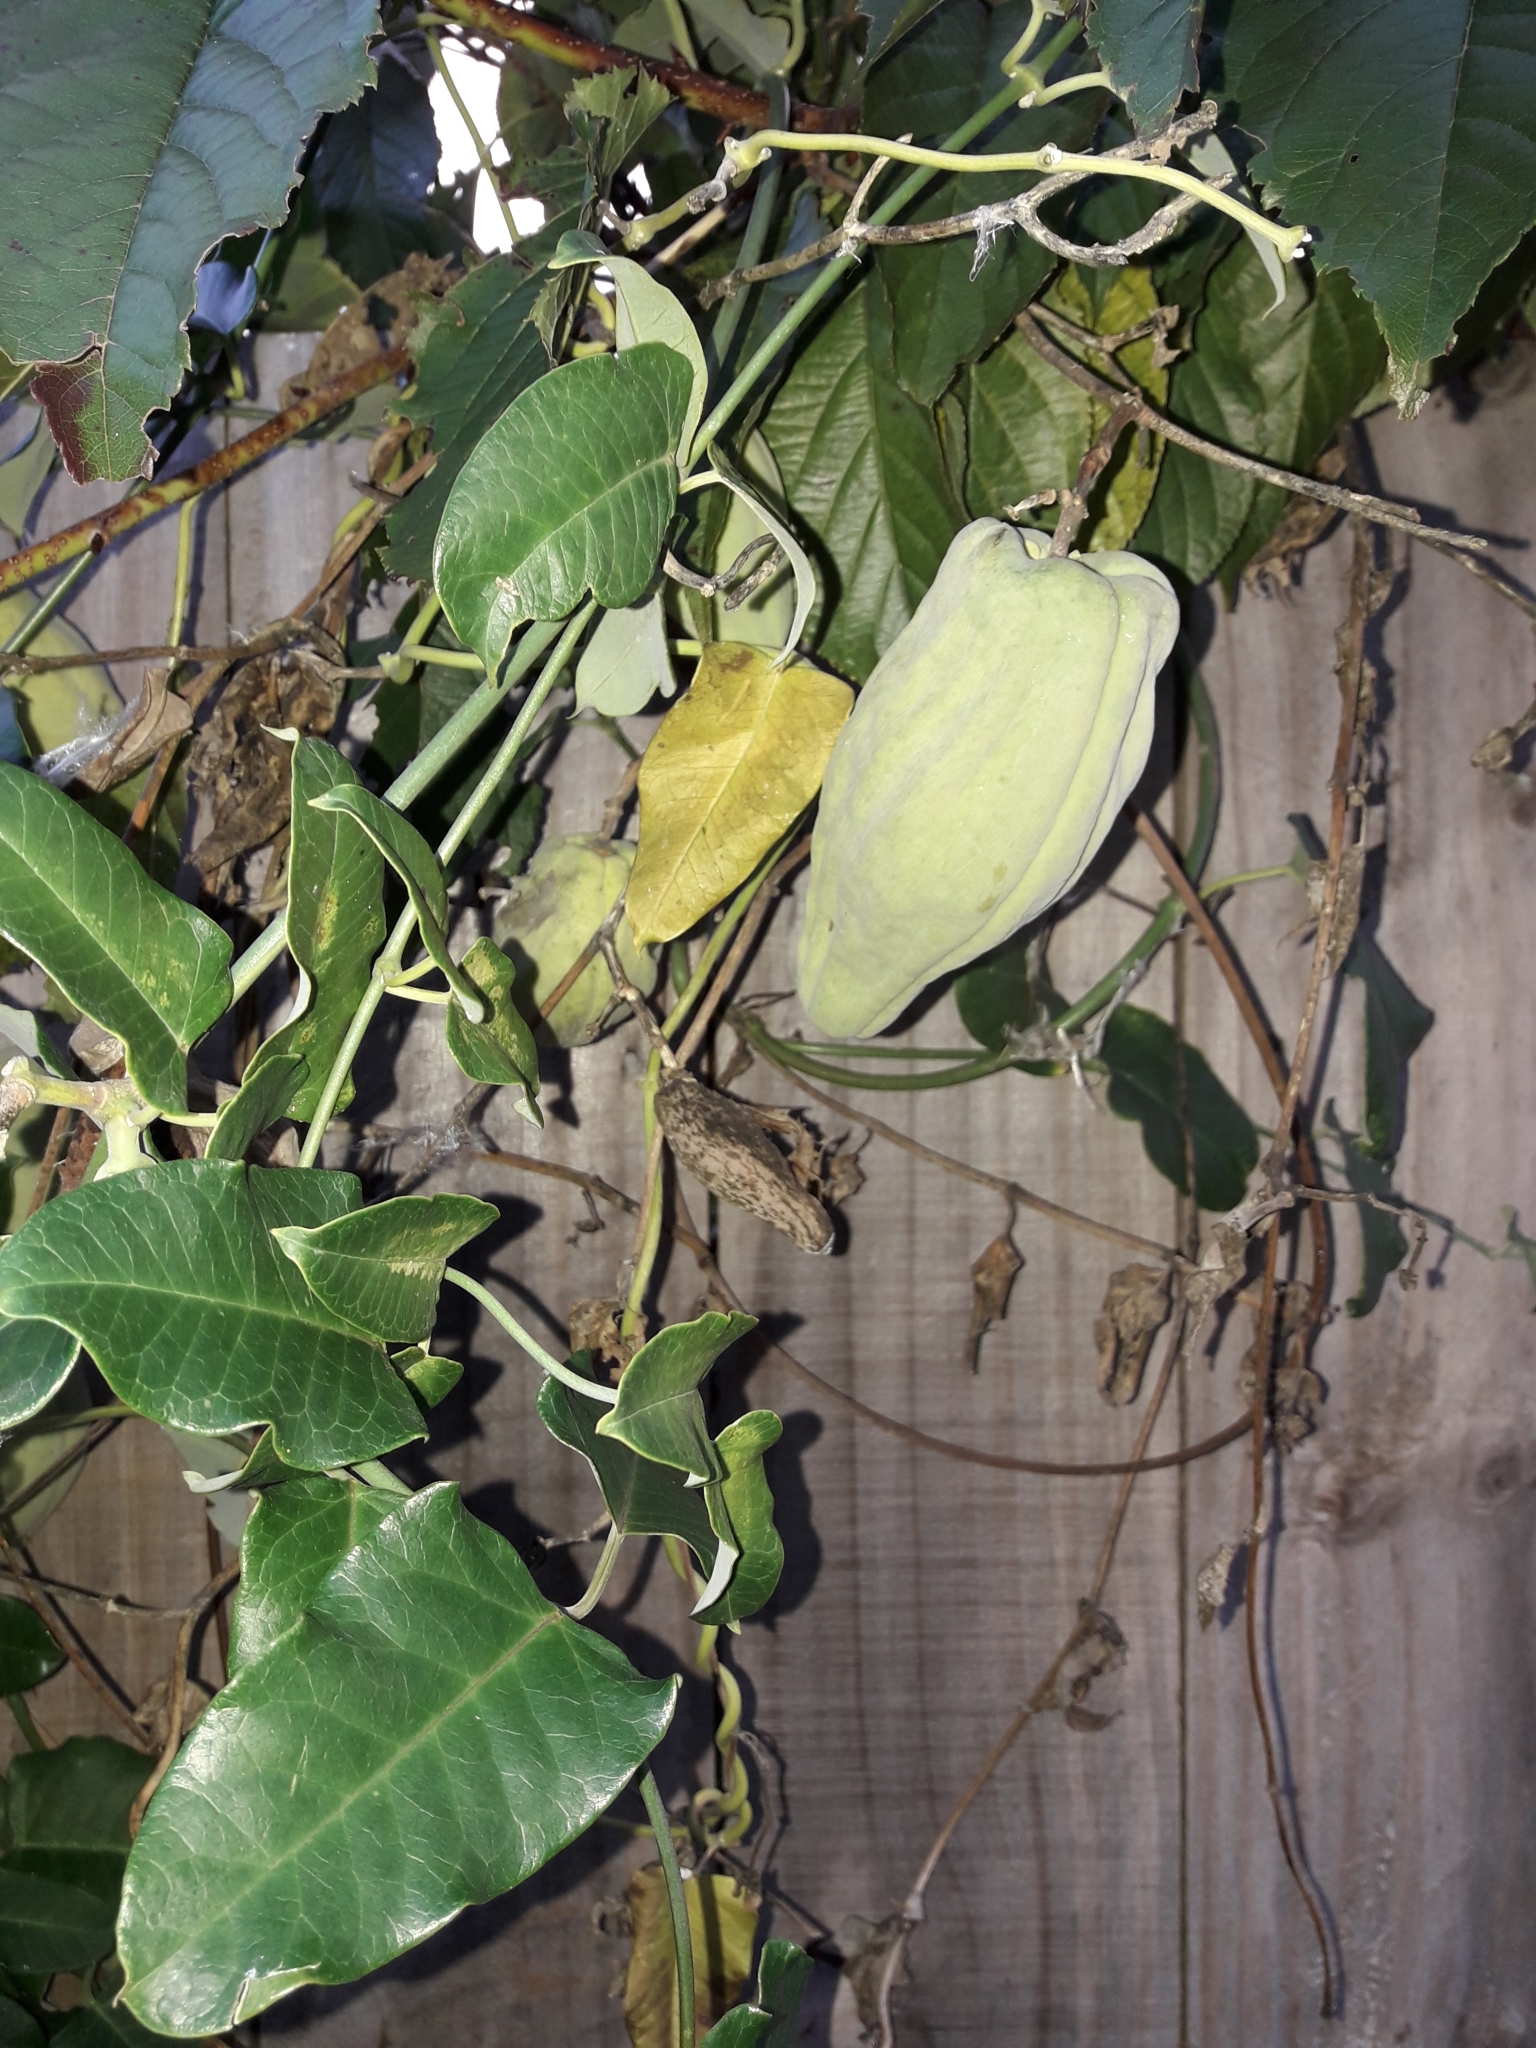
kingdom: Plantae
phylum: Tracheophyta
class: Magnoliopsida
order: Gentianales
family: Apocynaceae
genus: Araujia
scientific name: Araujia sericifera
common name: White bladderflower
